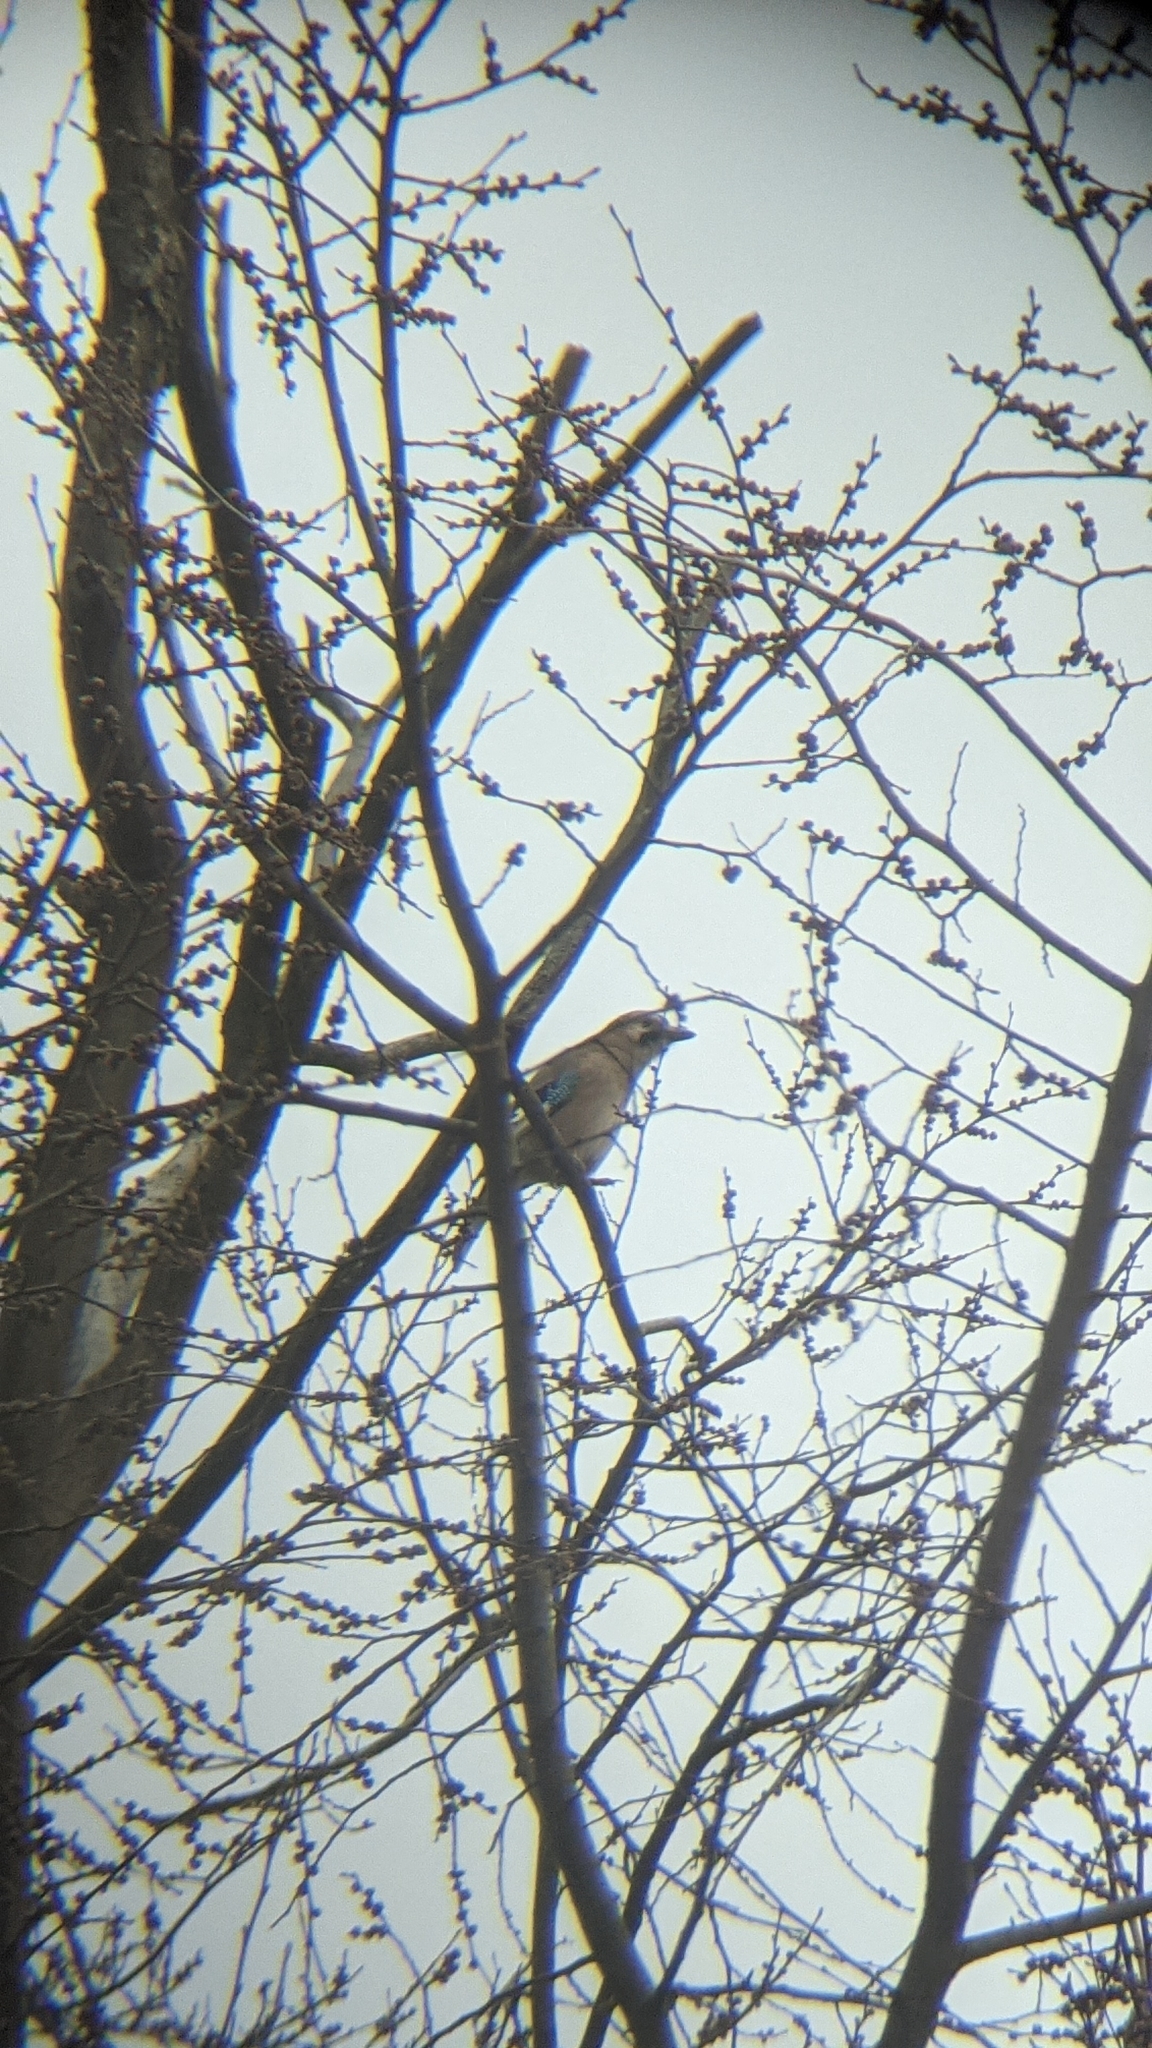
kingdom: Animalia
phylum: Chordata
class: Aves
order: Passeriformes
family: Corvidae
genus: Garrulus
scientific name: Garrulus glandarius
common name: Eurasian jay
